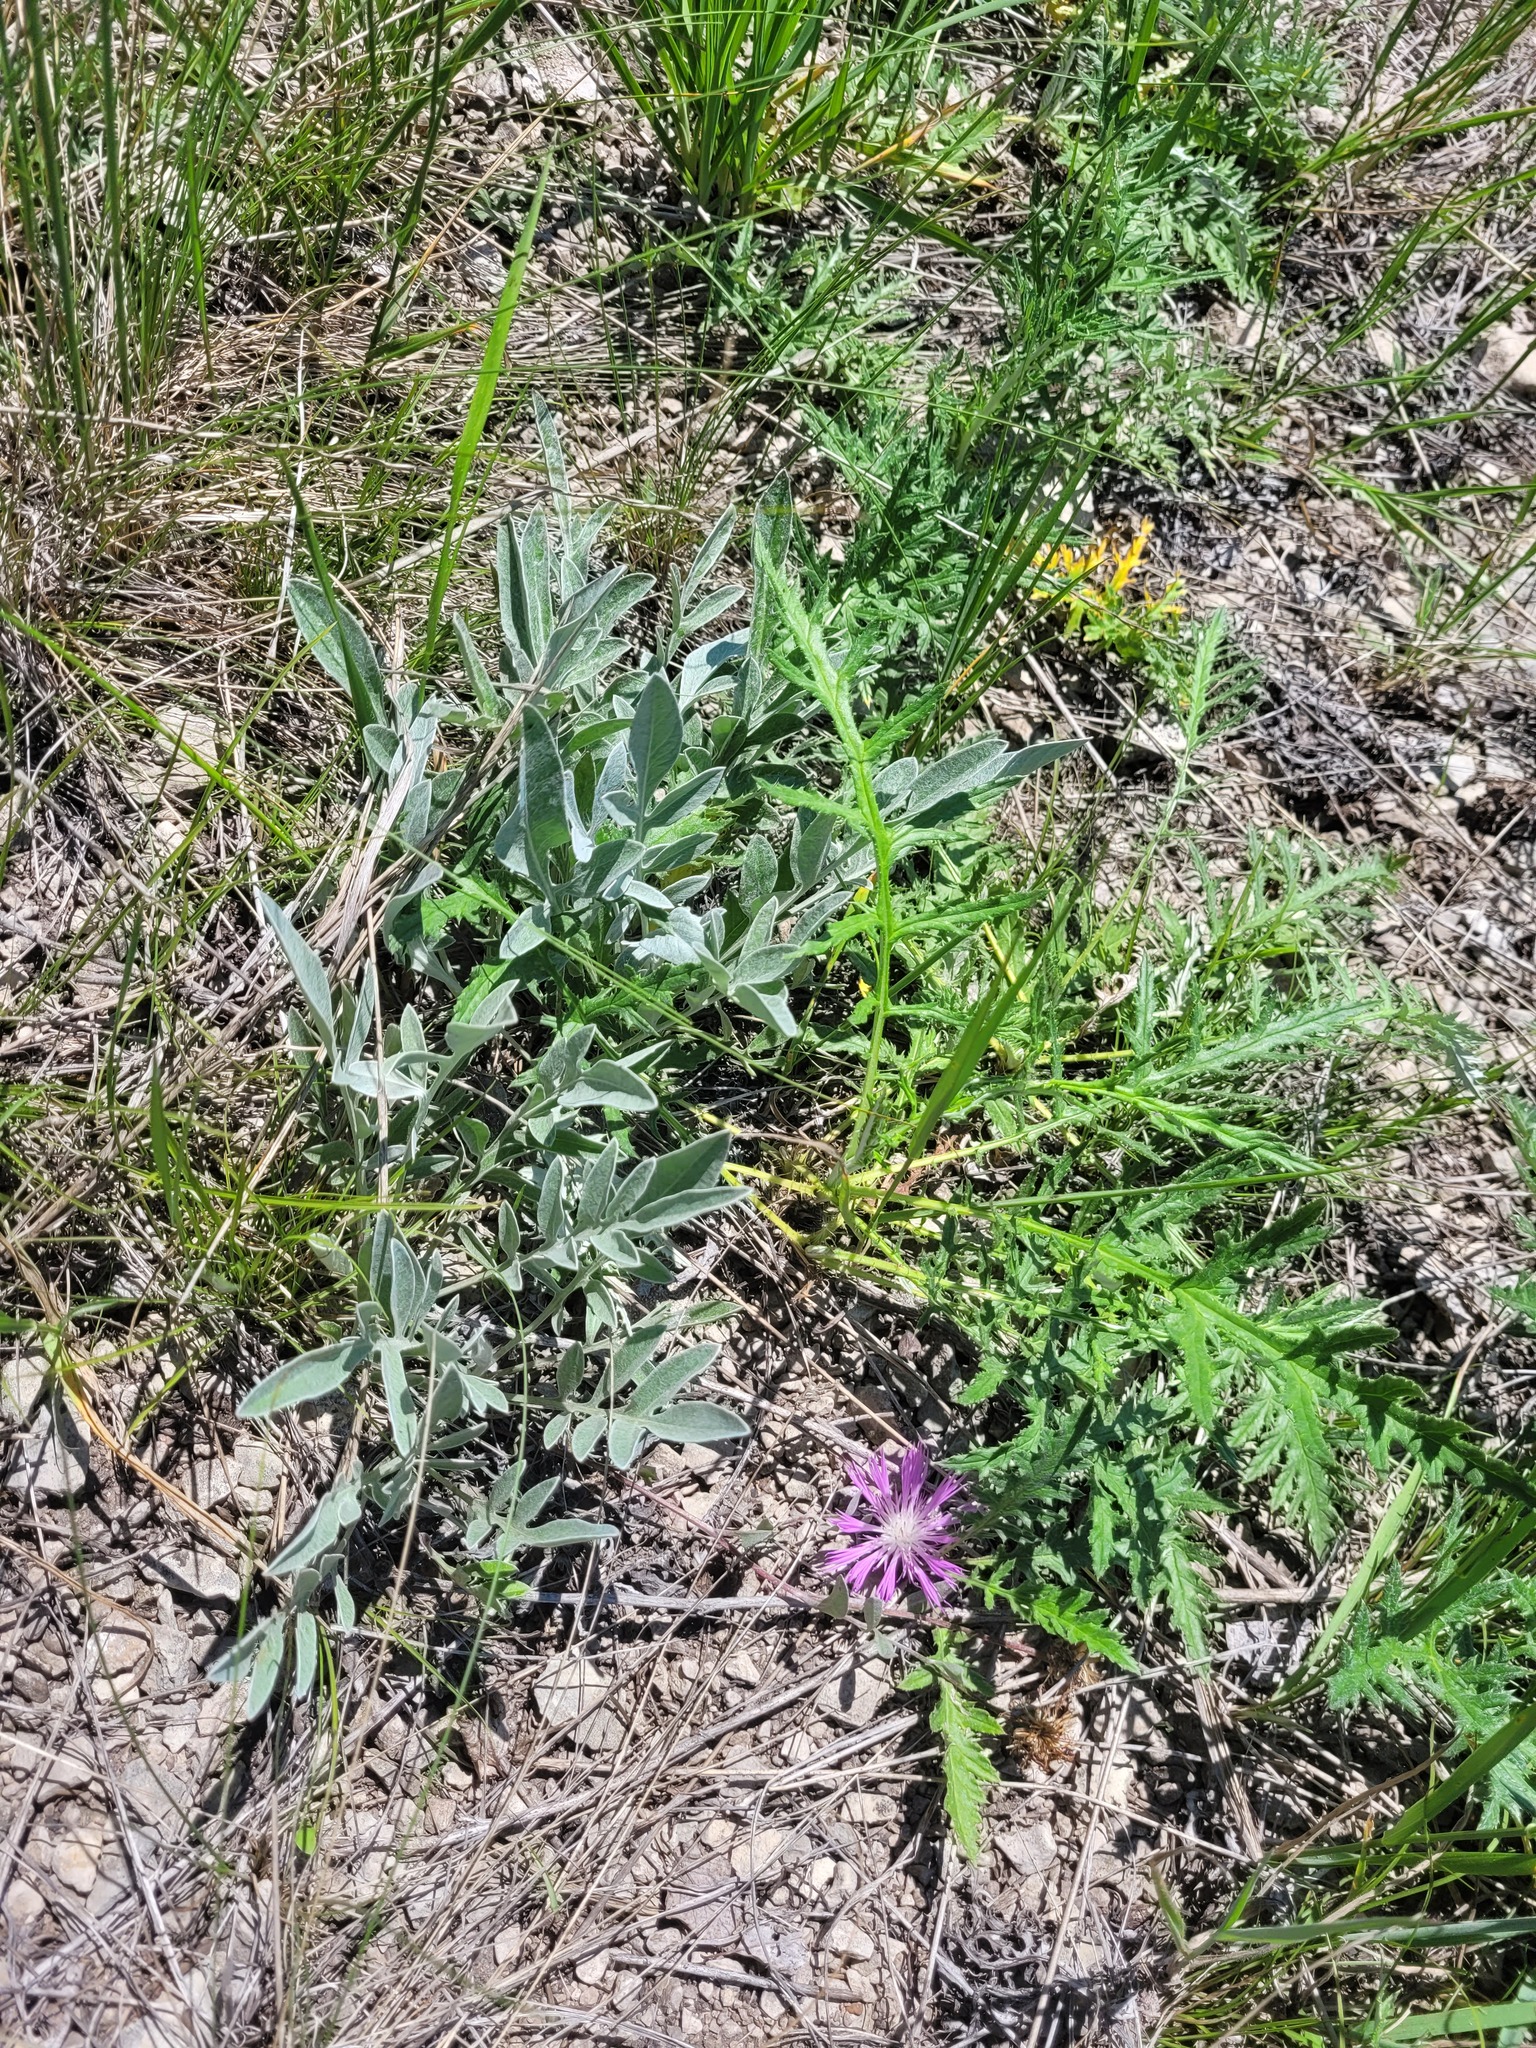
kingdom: Plantae
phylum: Tracheophyta
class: Magnoliopsida
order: Asterales
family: Asteraceae
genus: Psephellus
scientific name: Psephellus sumensis
